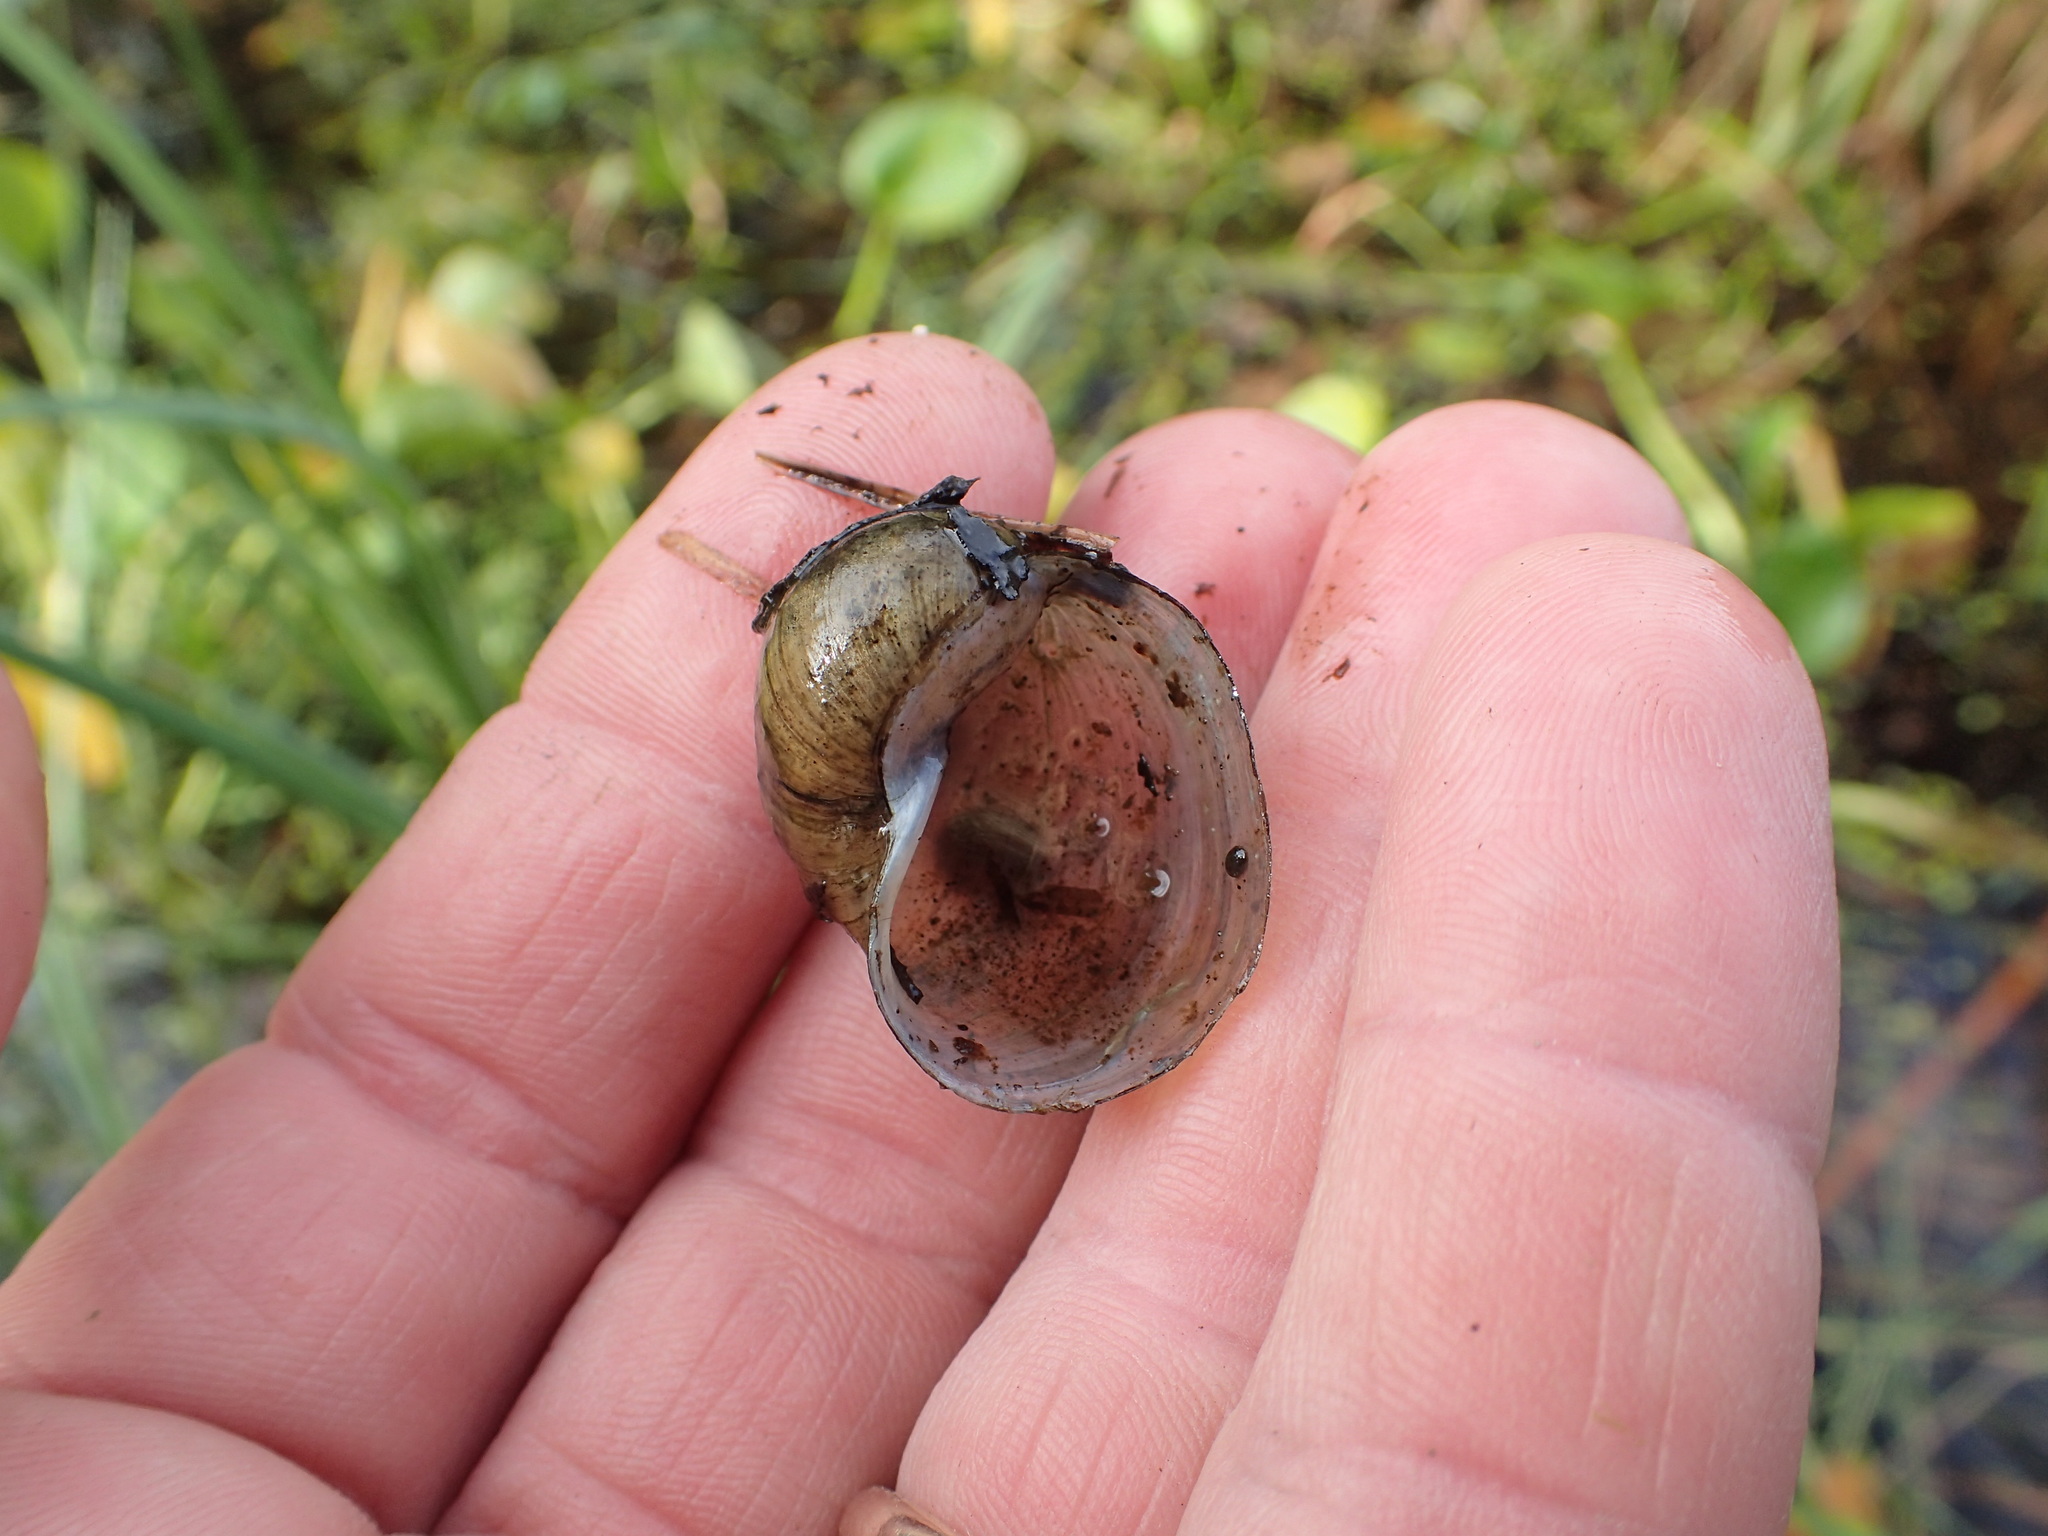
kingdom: Animalia
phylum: Mollusca
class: Gastropoda
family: Lymnaeidae
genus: Radix
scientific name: Radix auricularia
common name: Ear pond snail
